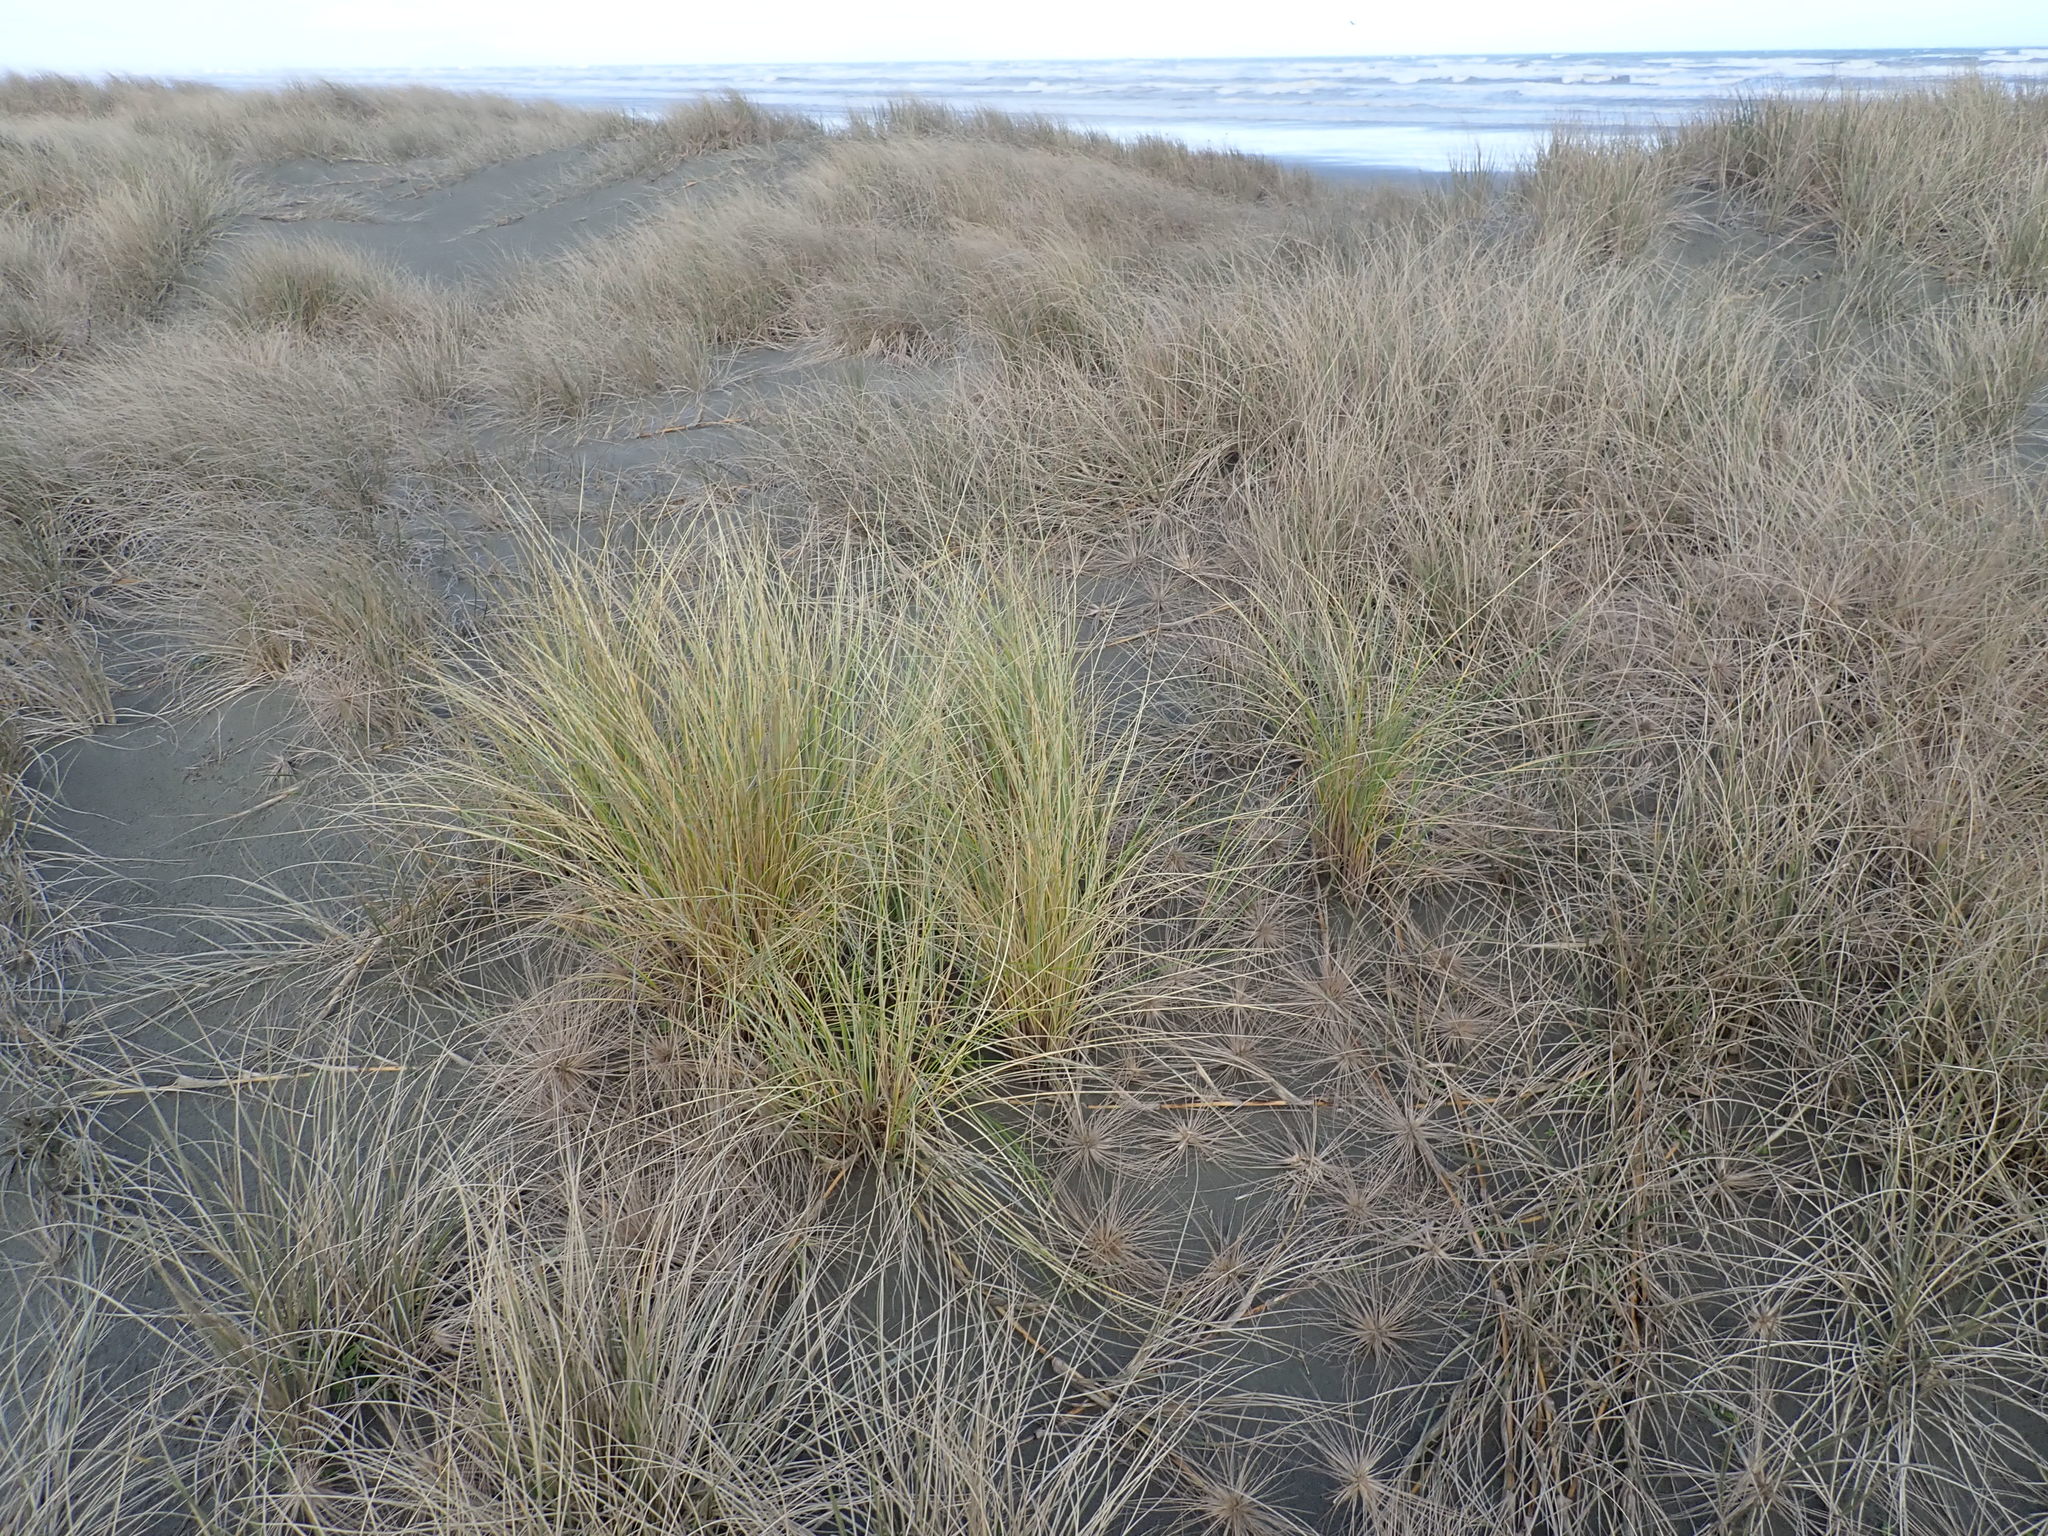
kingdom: Plantae
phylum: Tracheophyta
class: Liliopsida
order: Poales
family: Poaceae
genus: Calamagrostis
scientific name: Calamagrostis arenaria
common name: European beachgrass
